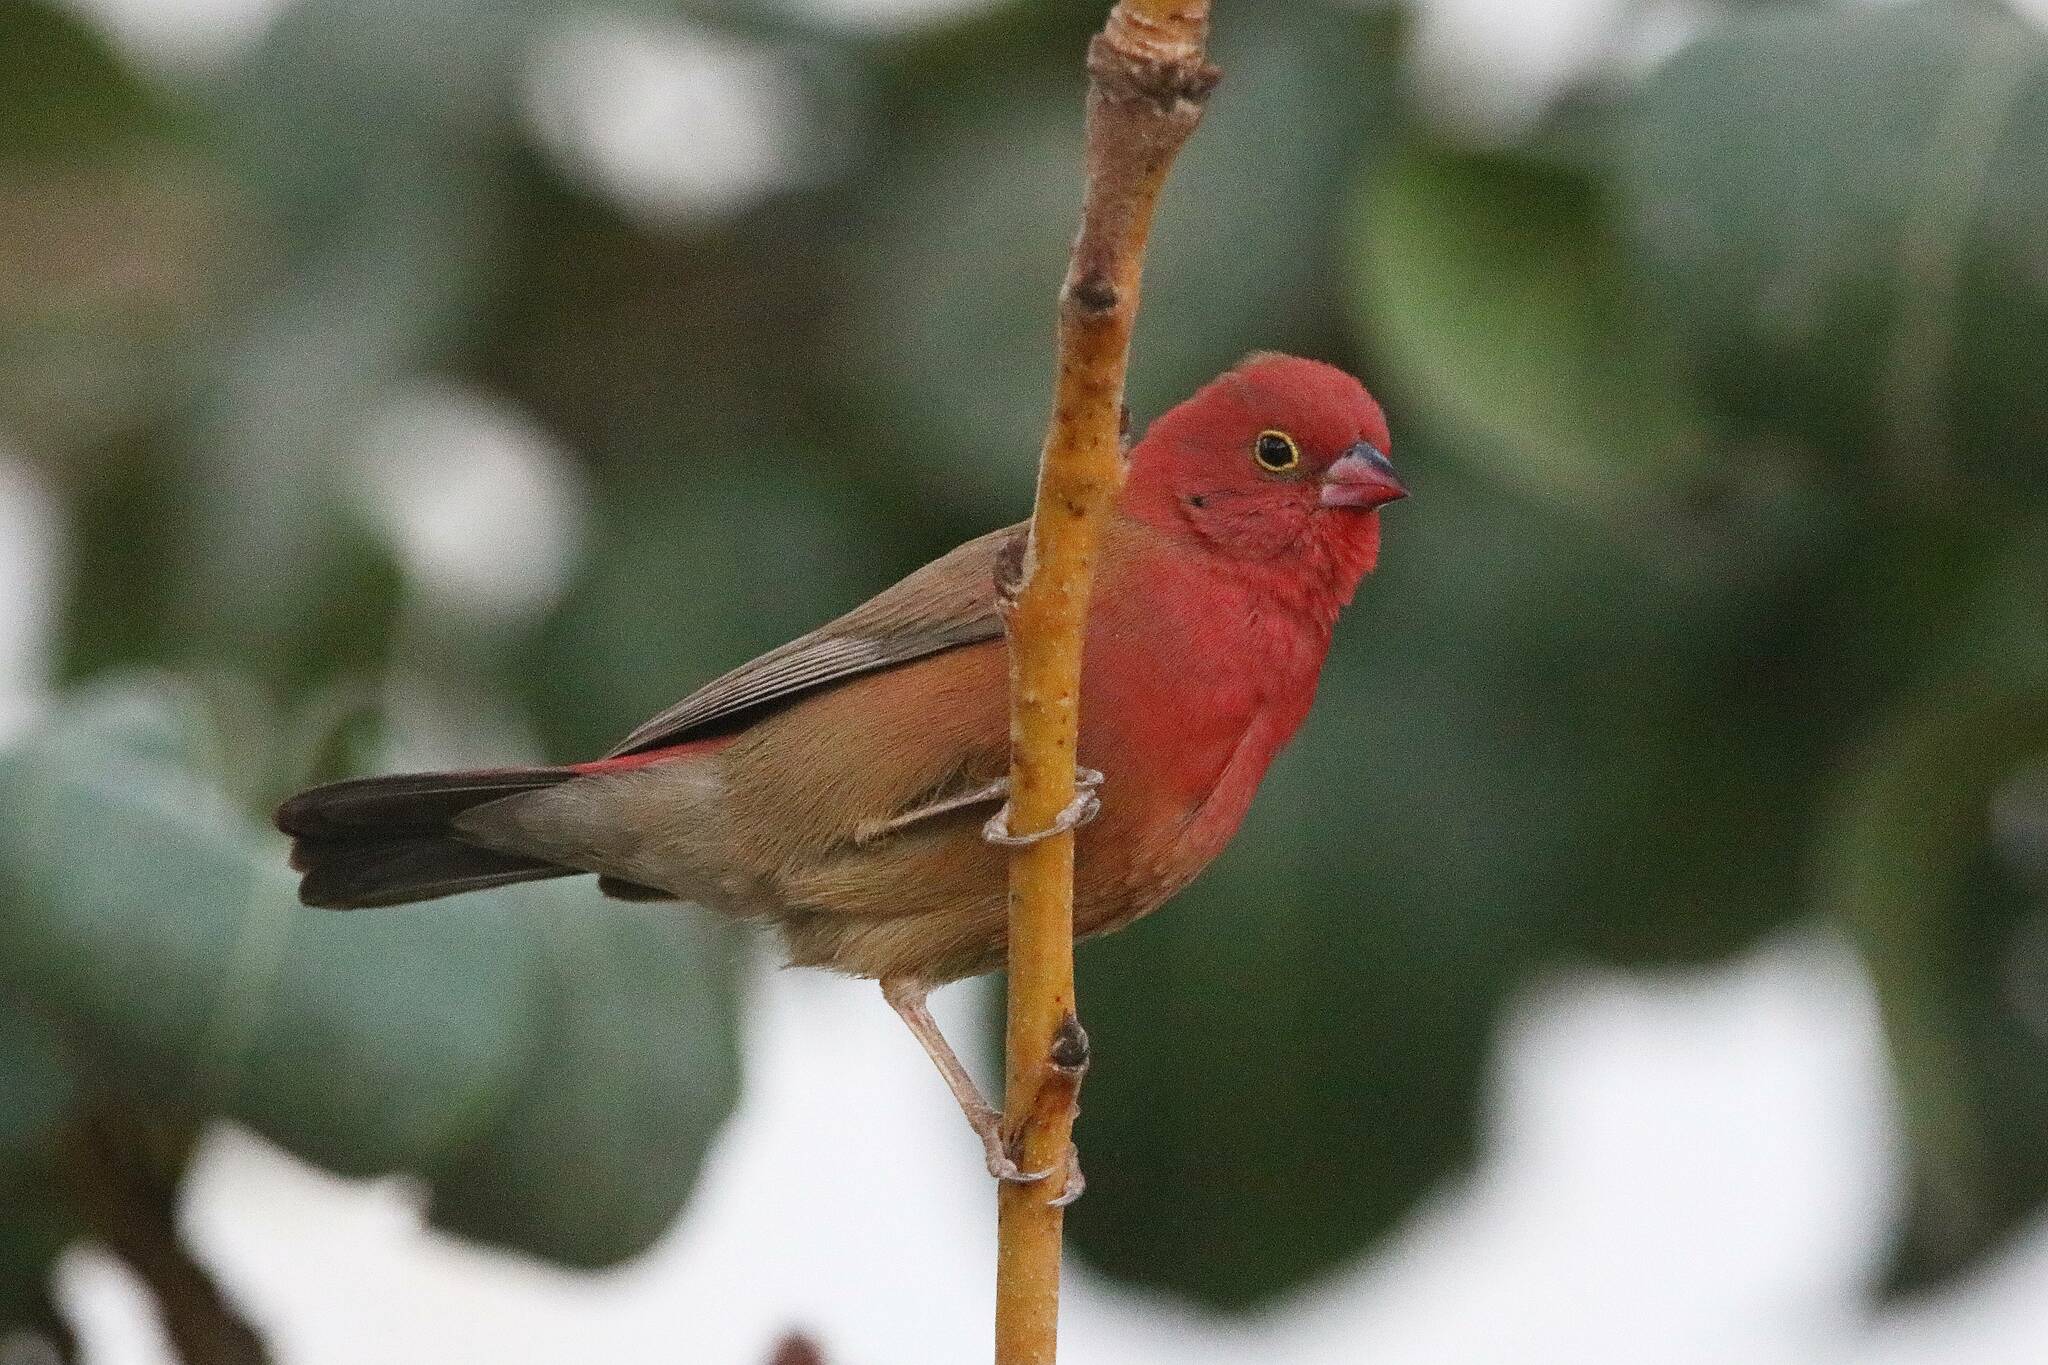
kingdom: Animalia
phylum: Chordata
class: Aves
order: Passeriformes
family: Estrildidae
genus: Lagonosticta
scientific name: Lagonosticta senegala
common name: Red-billed firefinch
